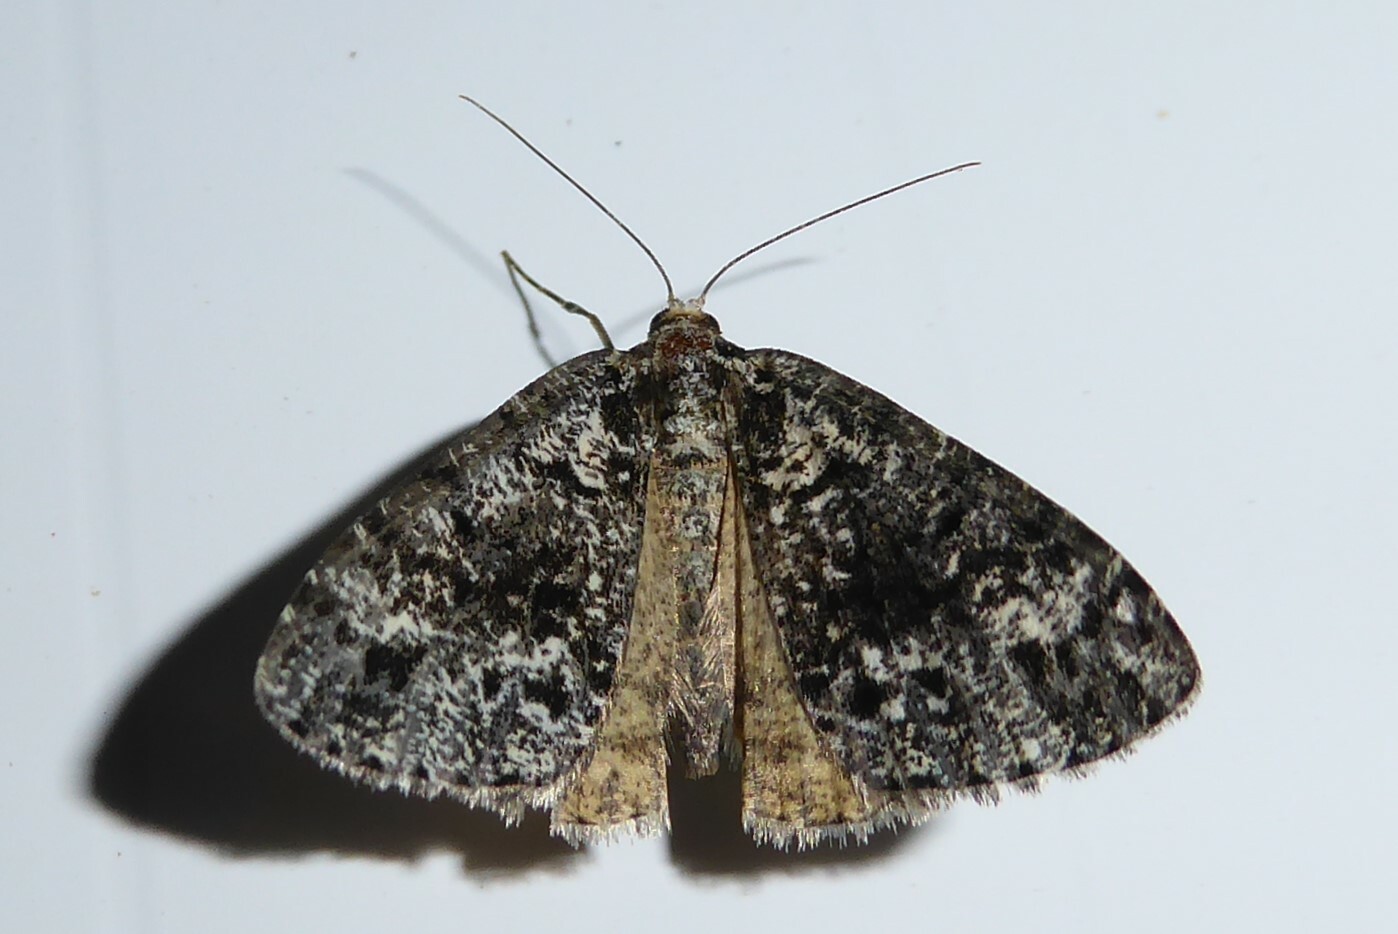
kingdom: Animalia
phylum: Arthropoda
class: Insecta
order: Lepidoptera
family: Geometridae
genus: Pseudocoremia
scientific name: Pseudocoremia leucelaea
